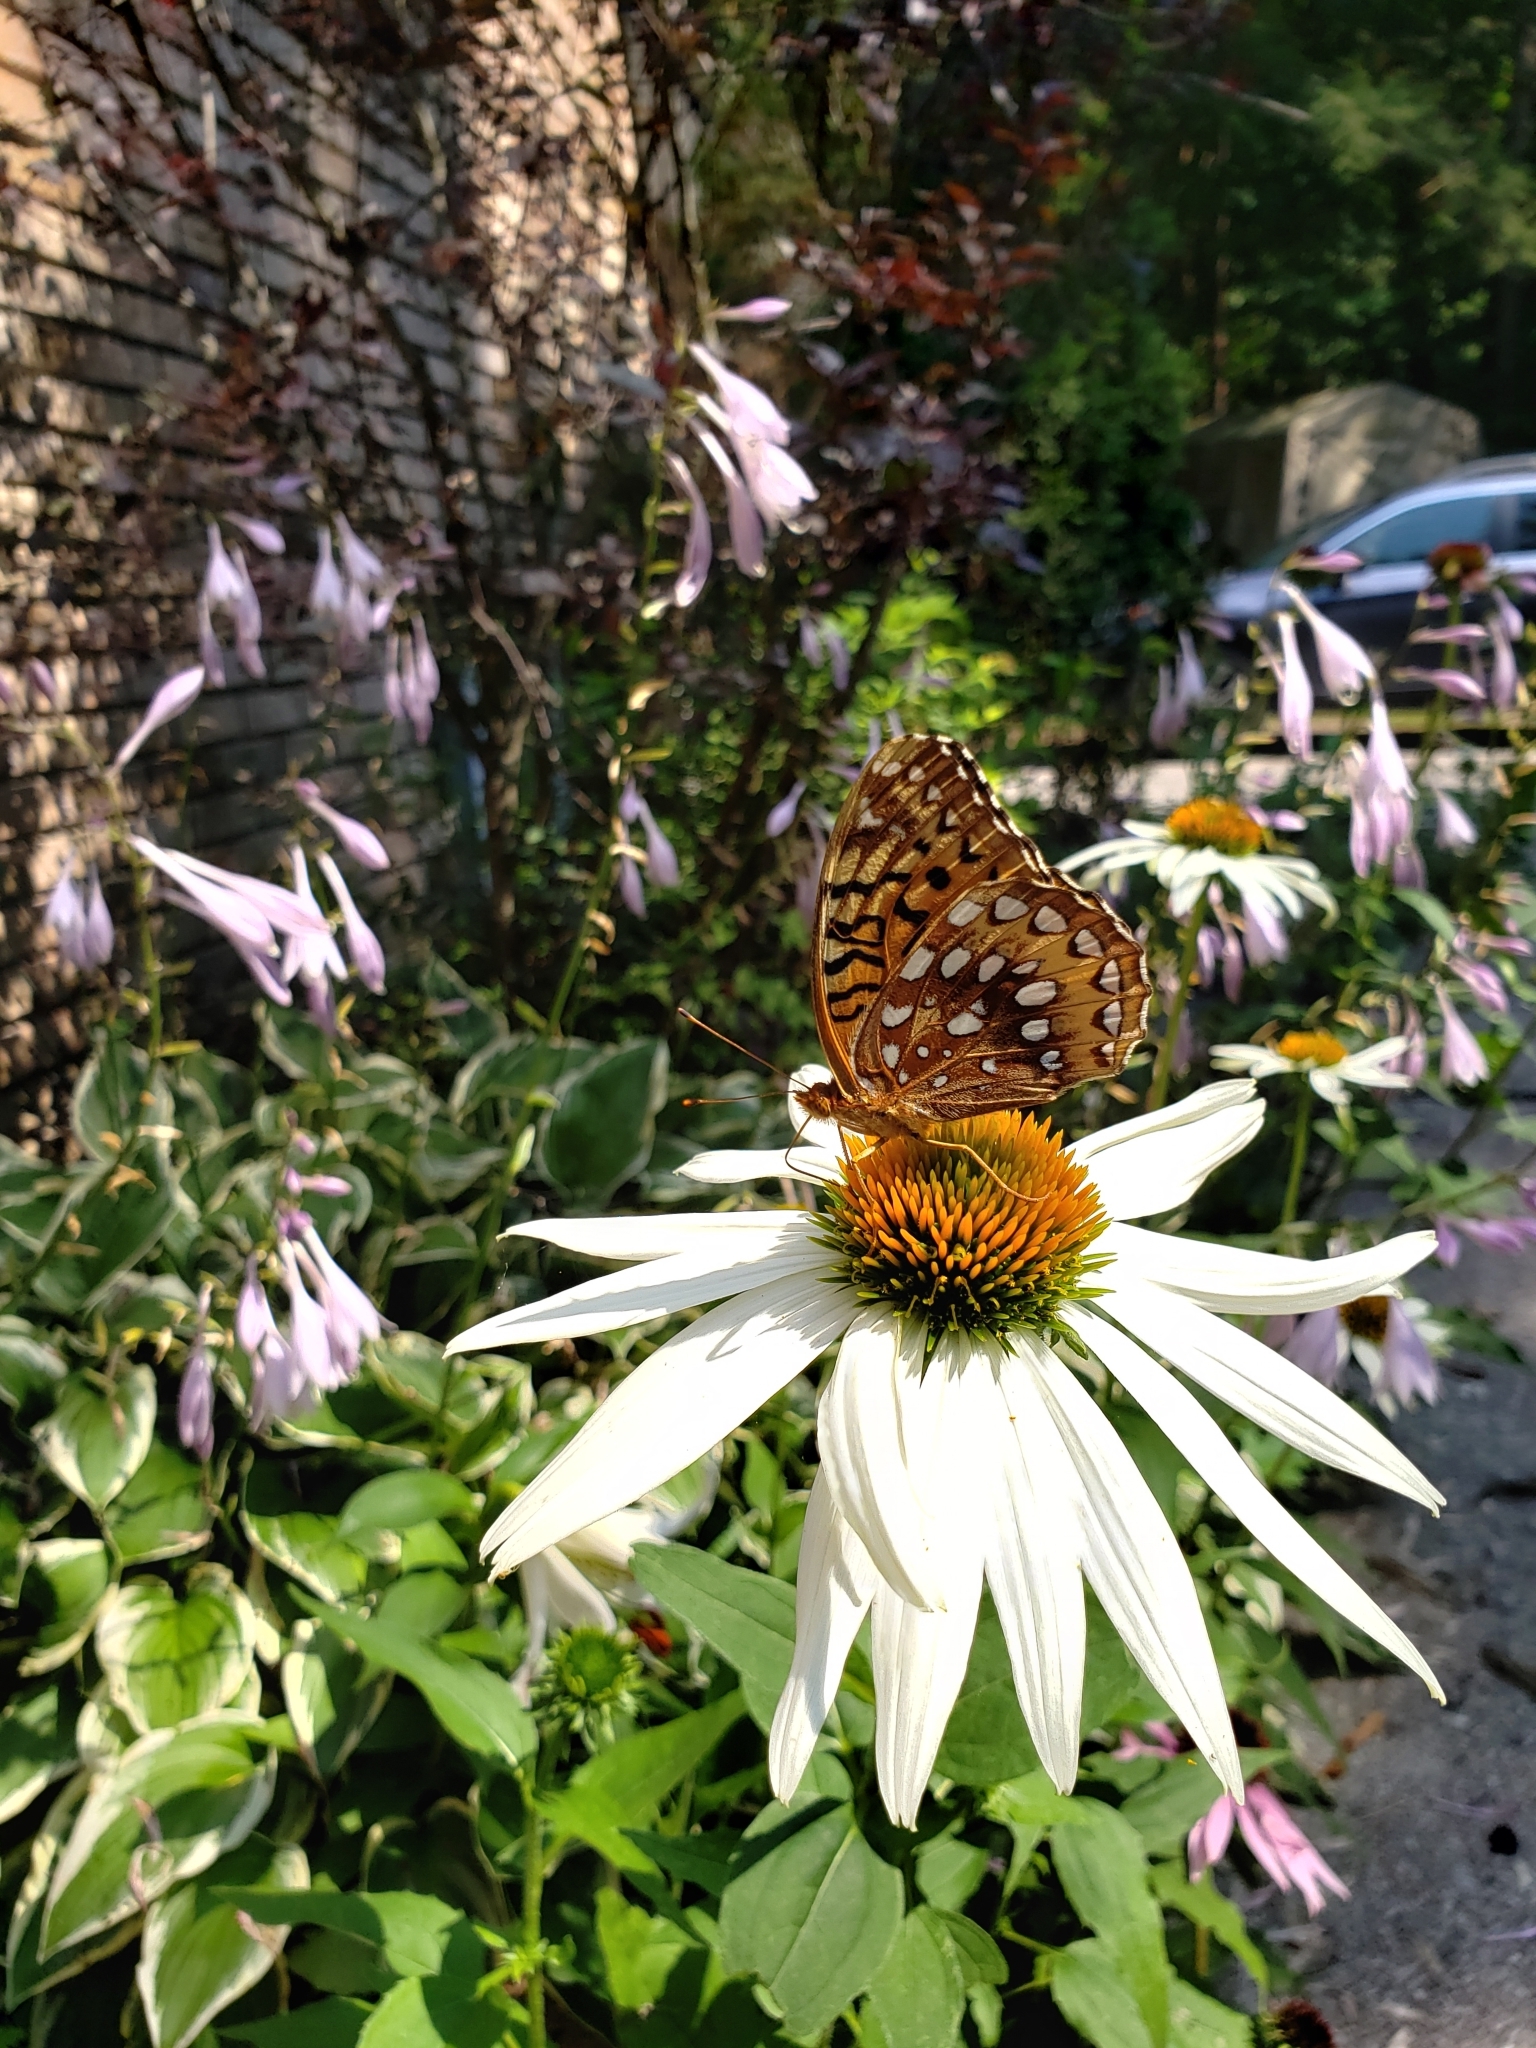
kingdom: Animalia
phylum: Arthropoda
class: Insecta
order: Lepidoptera
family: Nymphalidae
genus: Speyeria
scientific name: Speyeria cybele
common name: Great spangled fritillary
